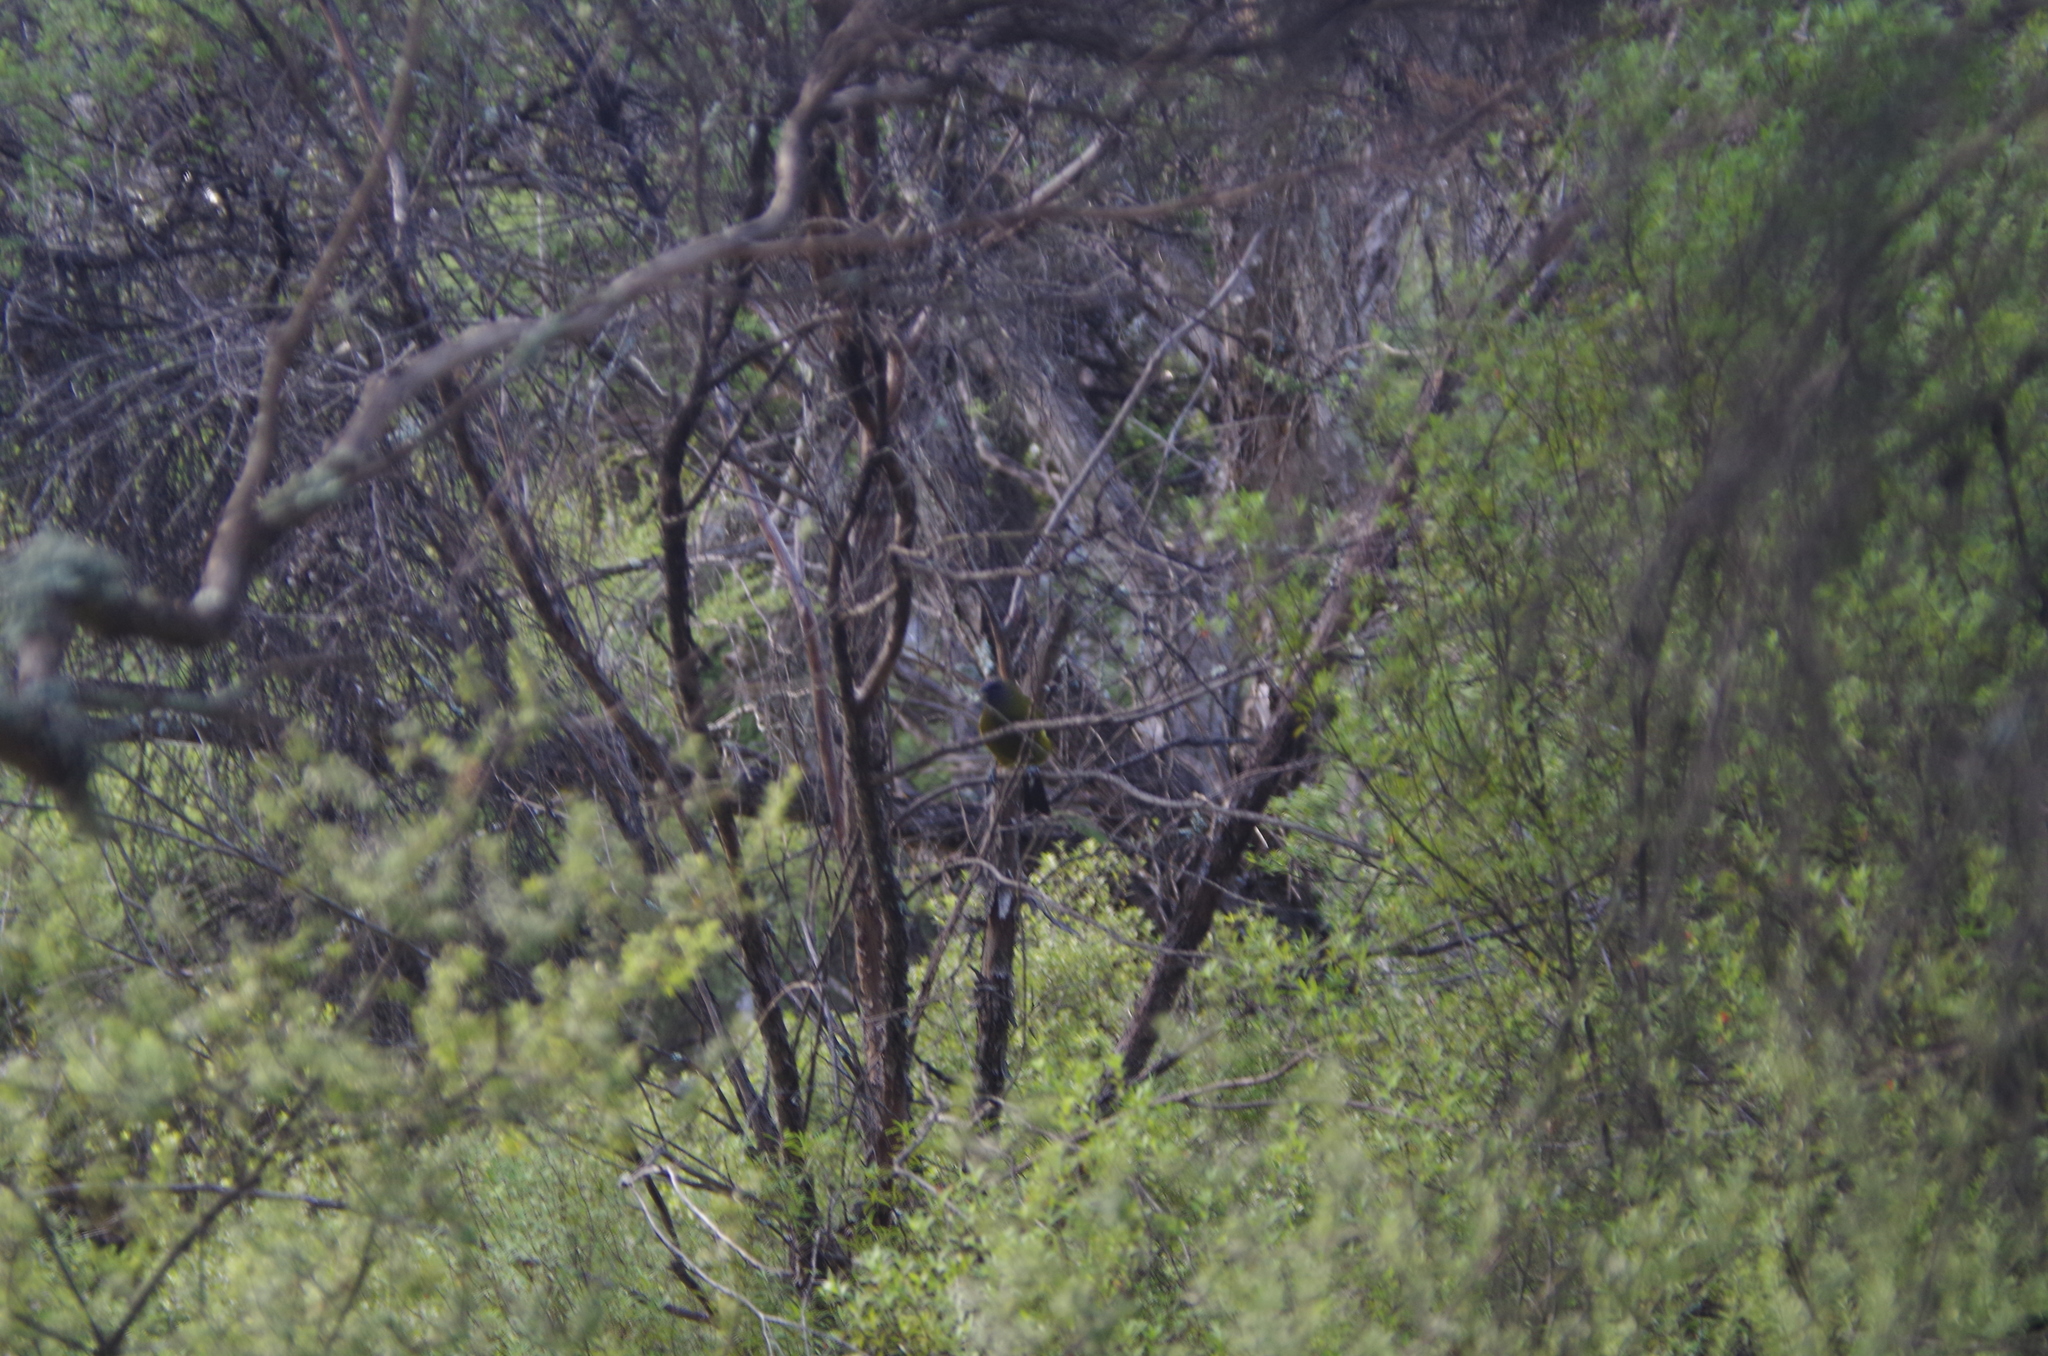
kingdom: Animalia
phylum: Chordata
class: Aves
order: Passeriformes
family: Meliphagidae
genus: Anthornis
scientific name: Anthornis melanura
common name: New zealand bellbird
